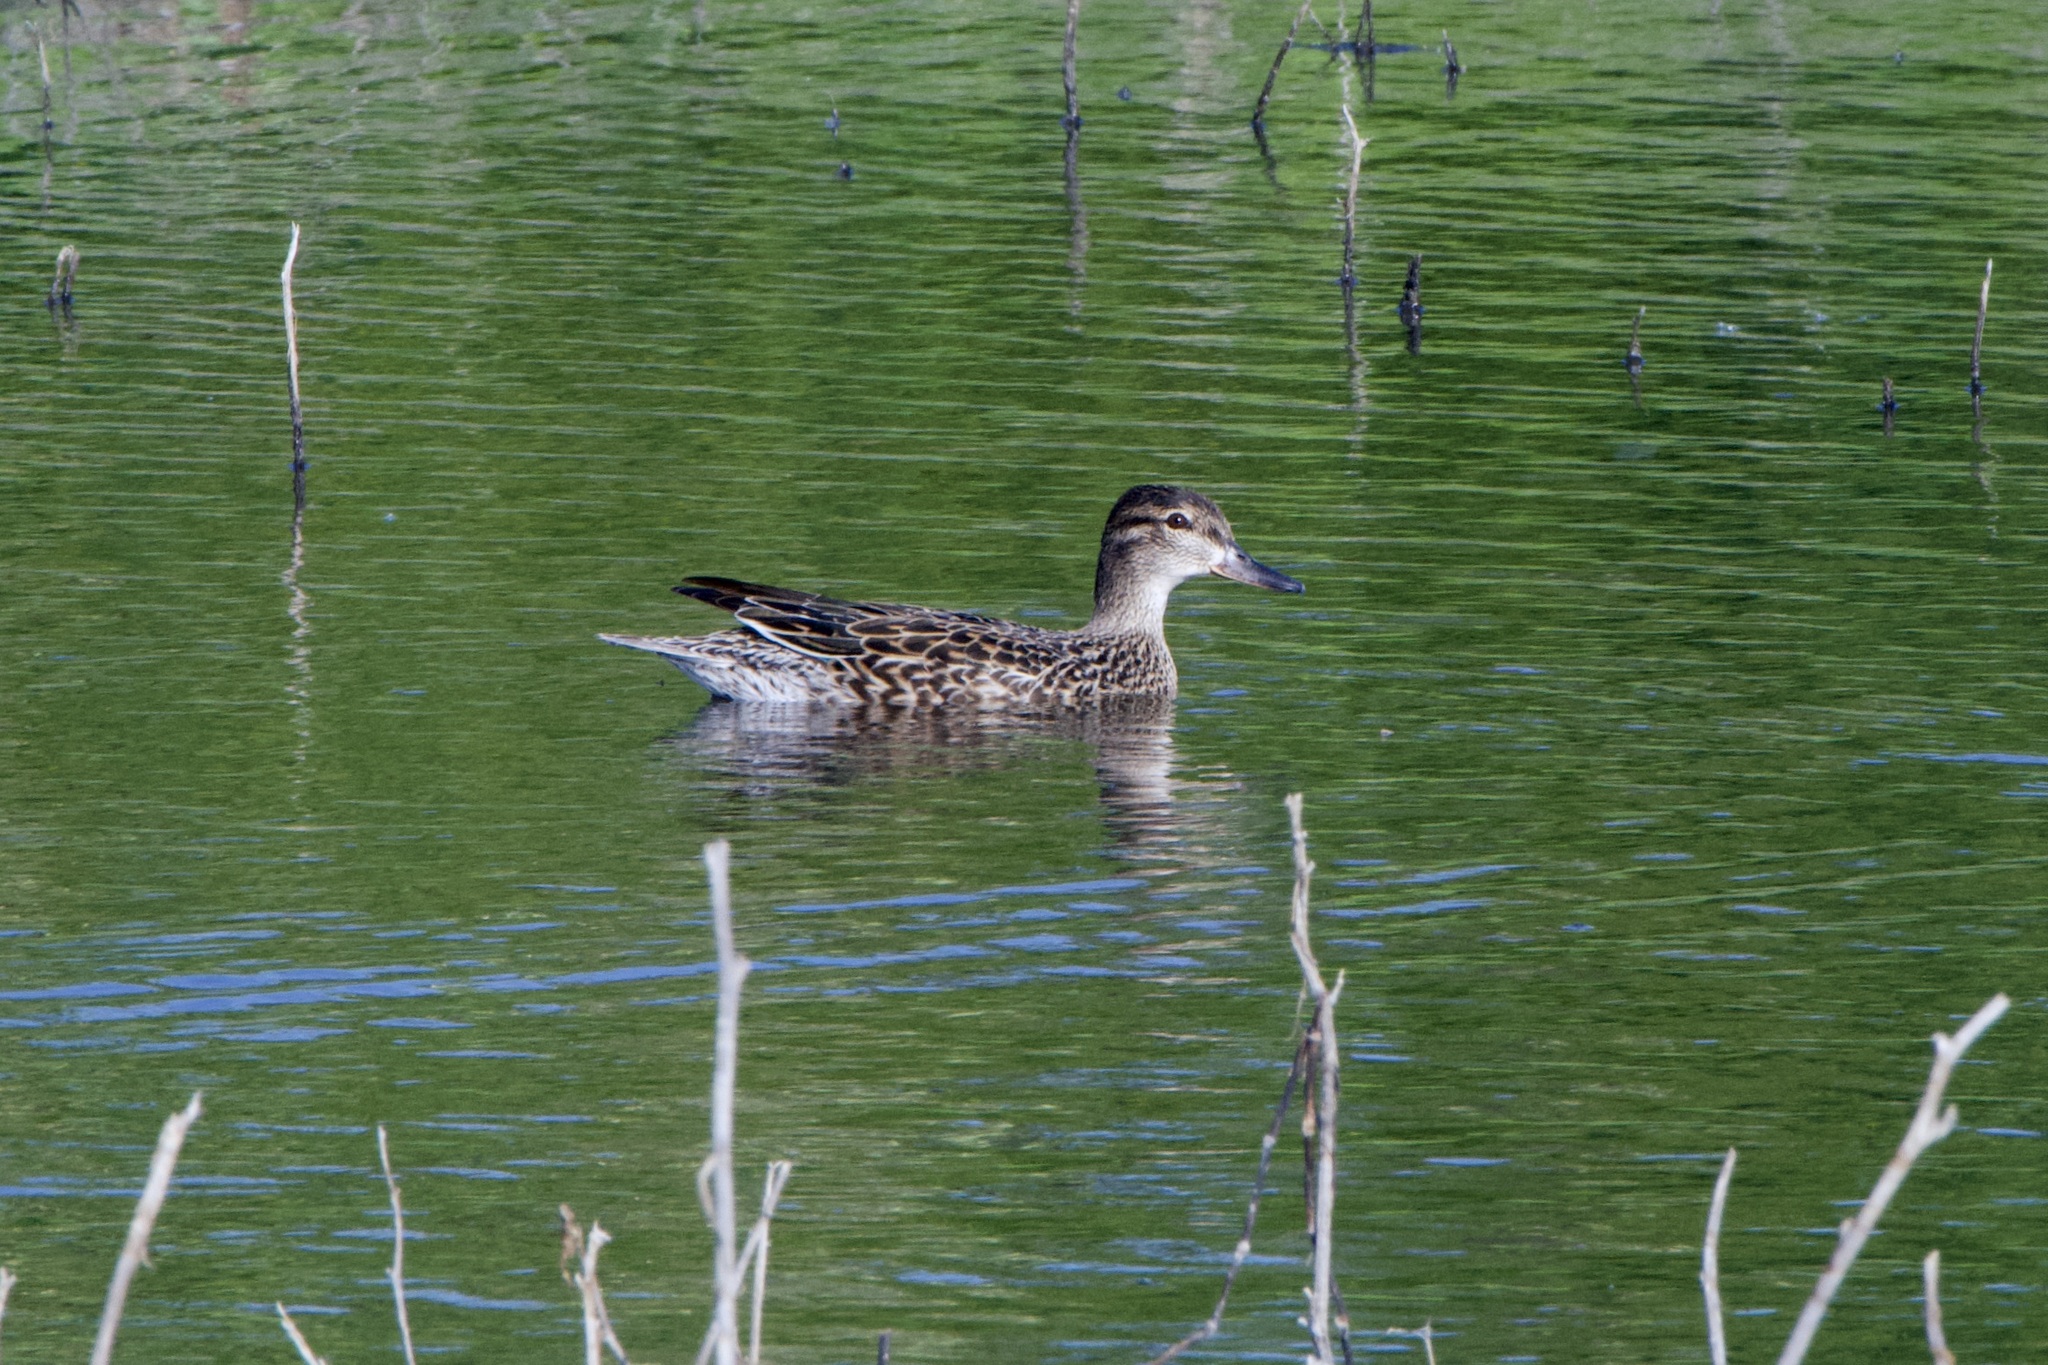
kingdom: Animalia
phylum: Chordata
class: Aves
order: Anseriformes
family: Anatidae
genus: Anas
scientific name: Anas carolinensis
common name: Green-winged teal
